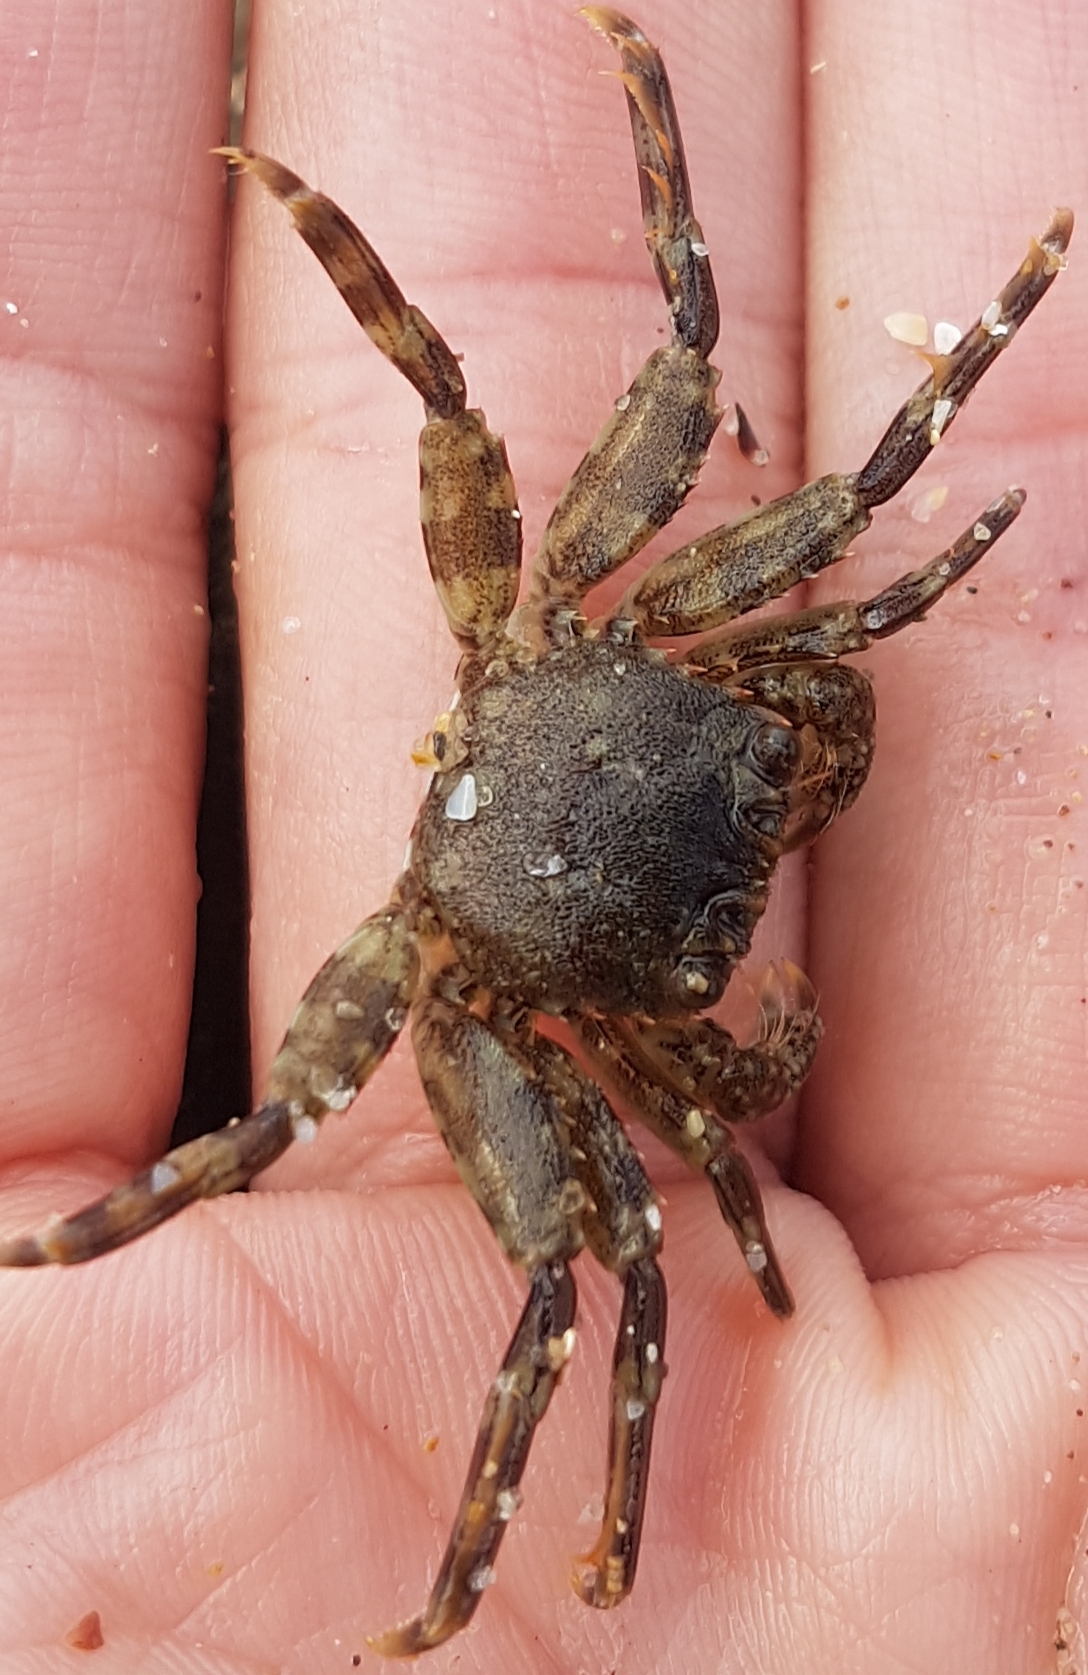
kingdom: Animalia
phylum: Arthropoda
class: Malacostraca
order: Decapoda
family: Plagusiidae
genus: Guinusia
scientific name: Guinusia chabrus
